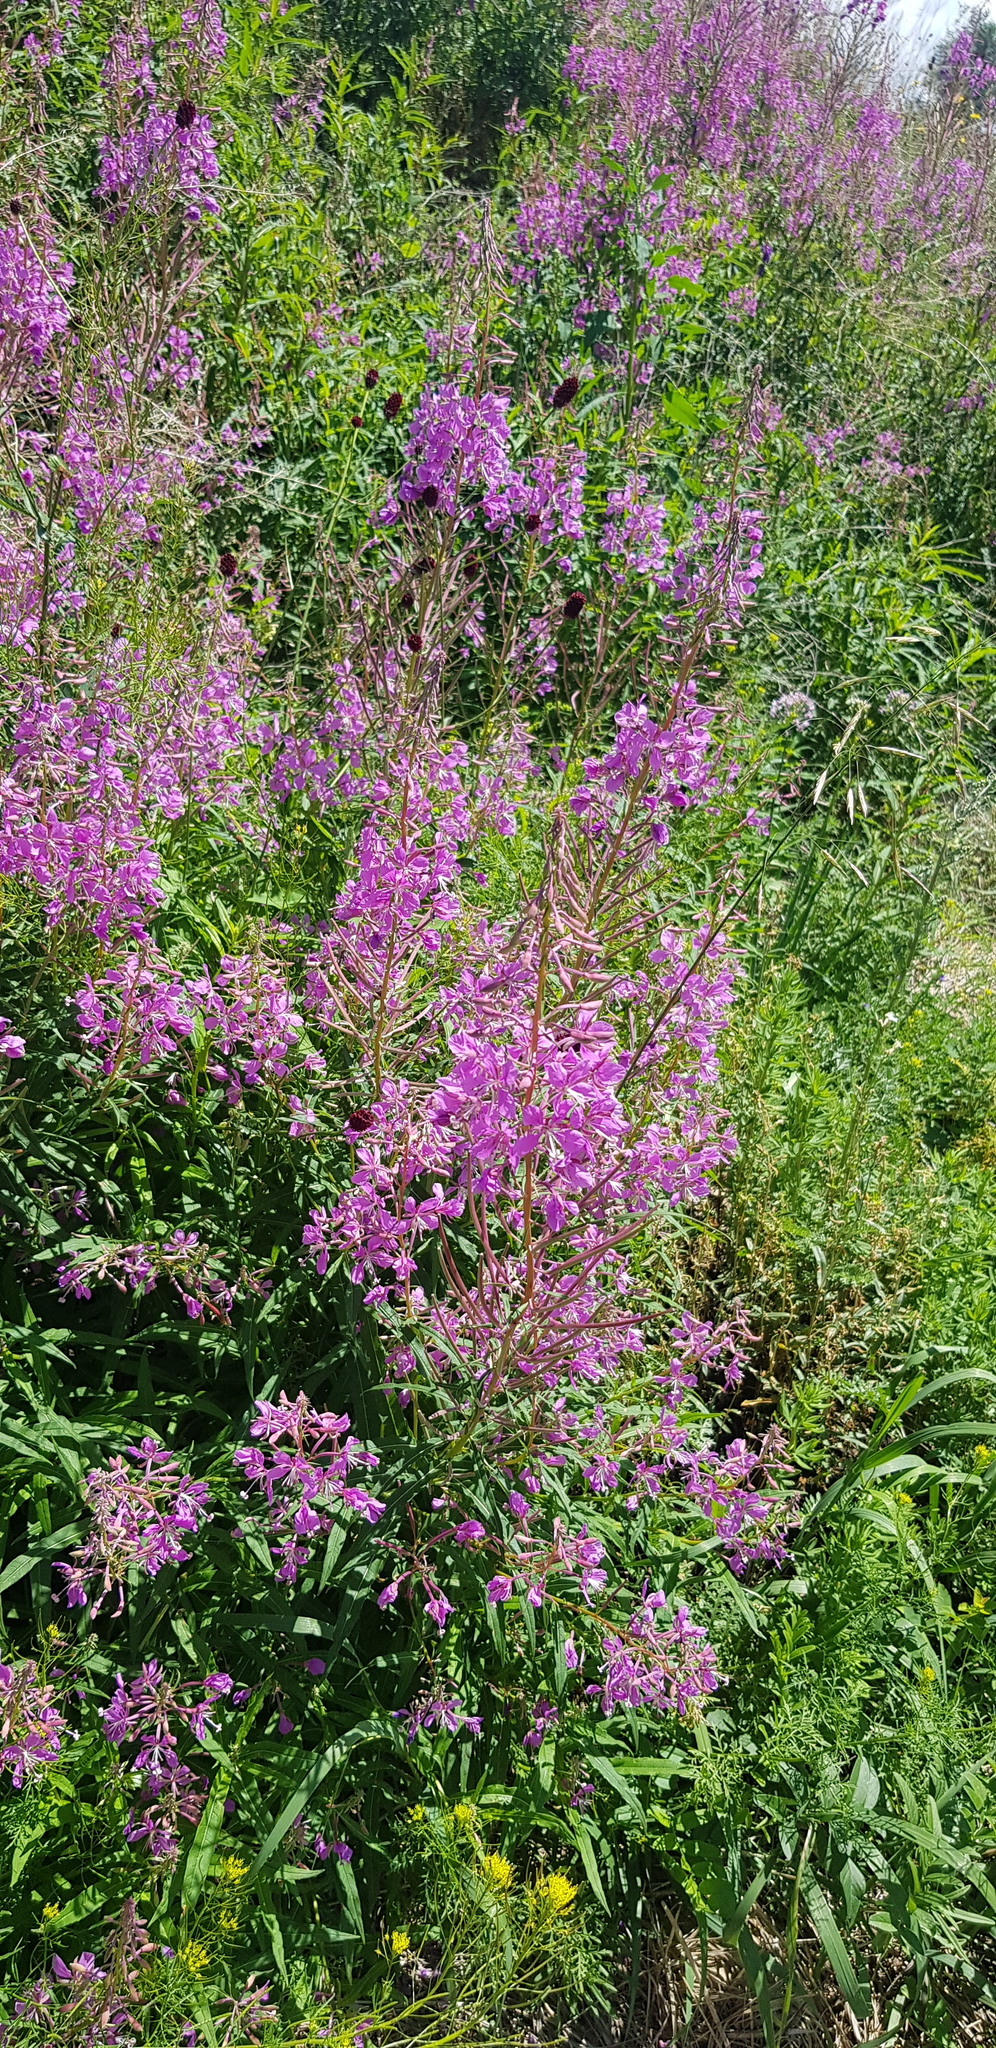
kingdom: Plantae
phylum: Tracheophyta
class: Magnoliopsida
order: Myrtales
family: Onagraceae
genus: Chamaenerion
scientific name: Chamaenerion angustifolium
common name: Fireweed
